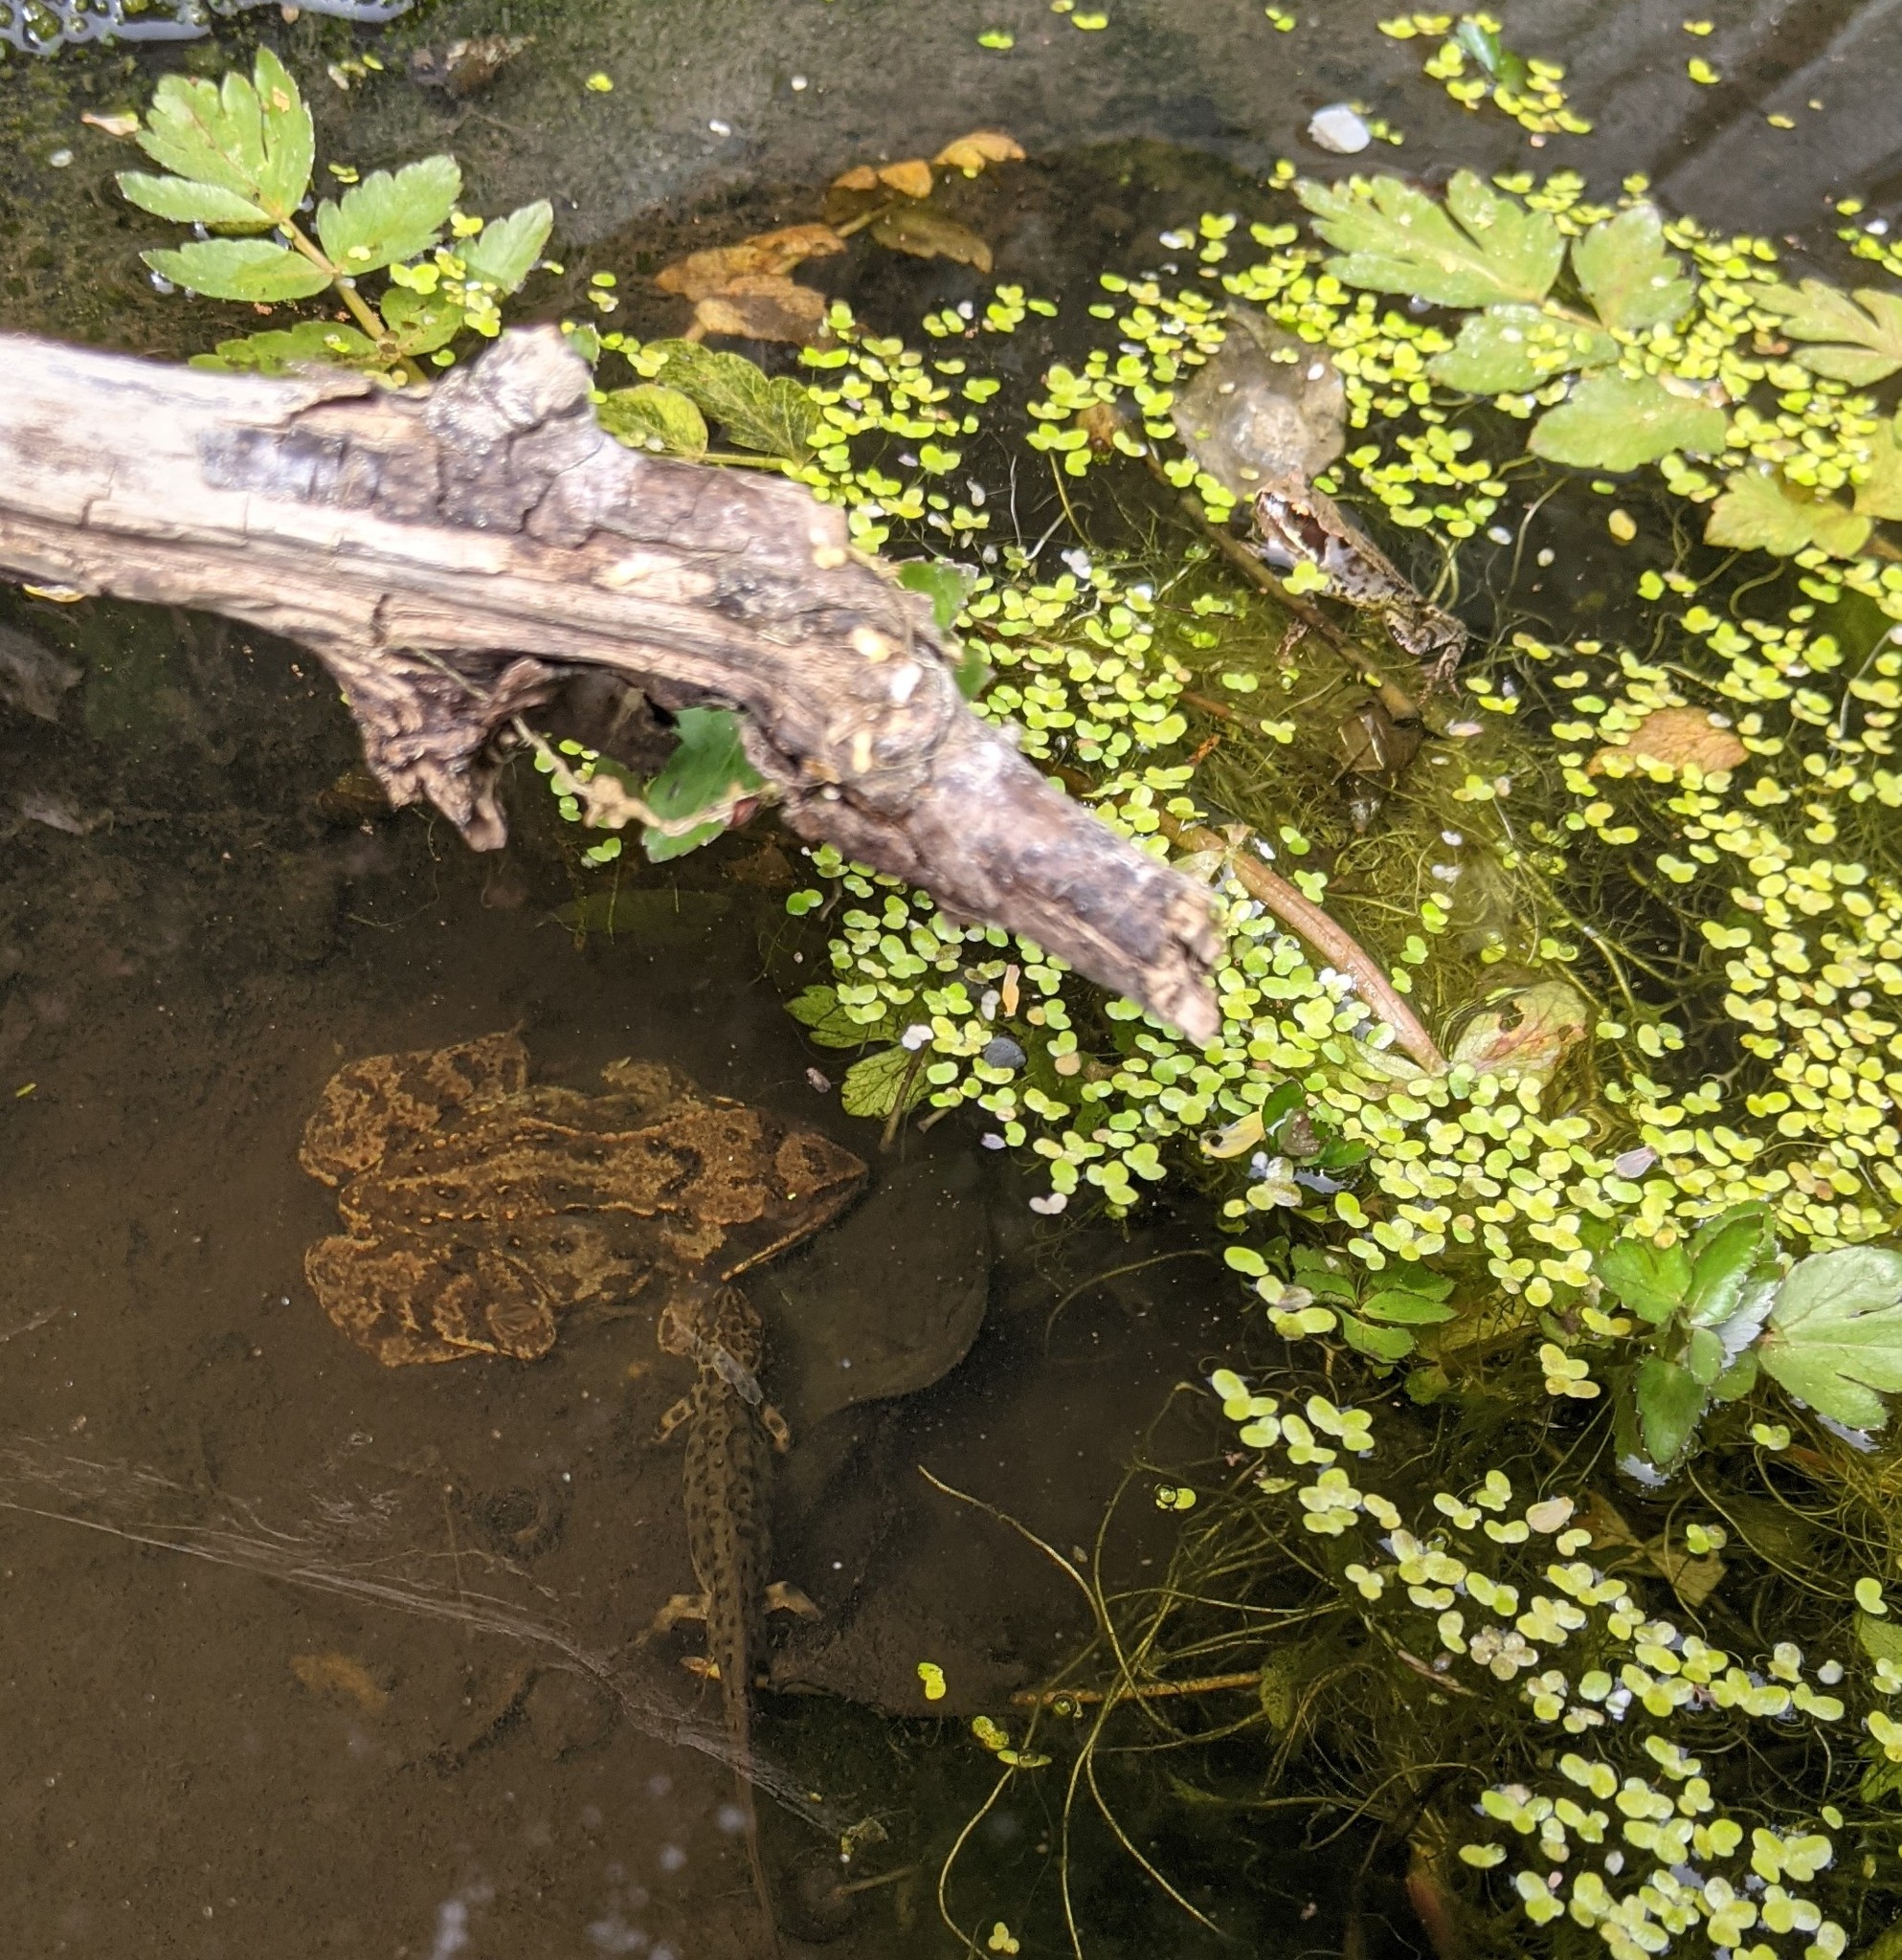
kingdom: Animalia
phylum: Chordata
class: Amphibia
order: Anura
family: Ranidae
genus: Rana
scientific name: Rana temporaria
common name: Common frog
